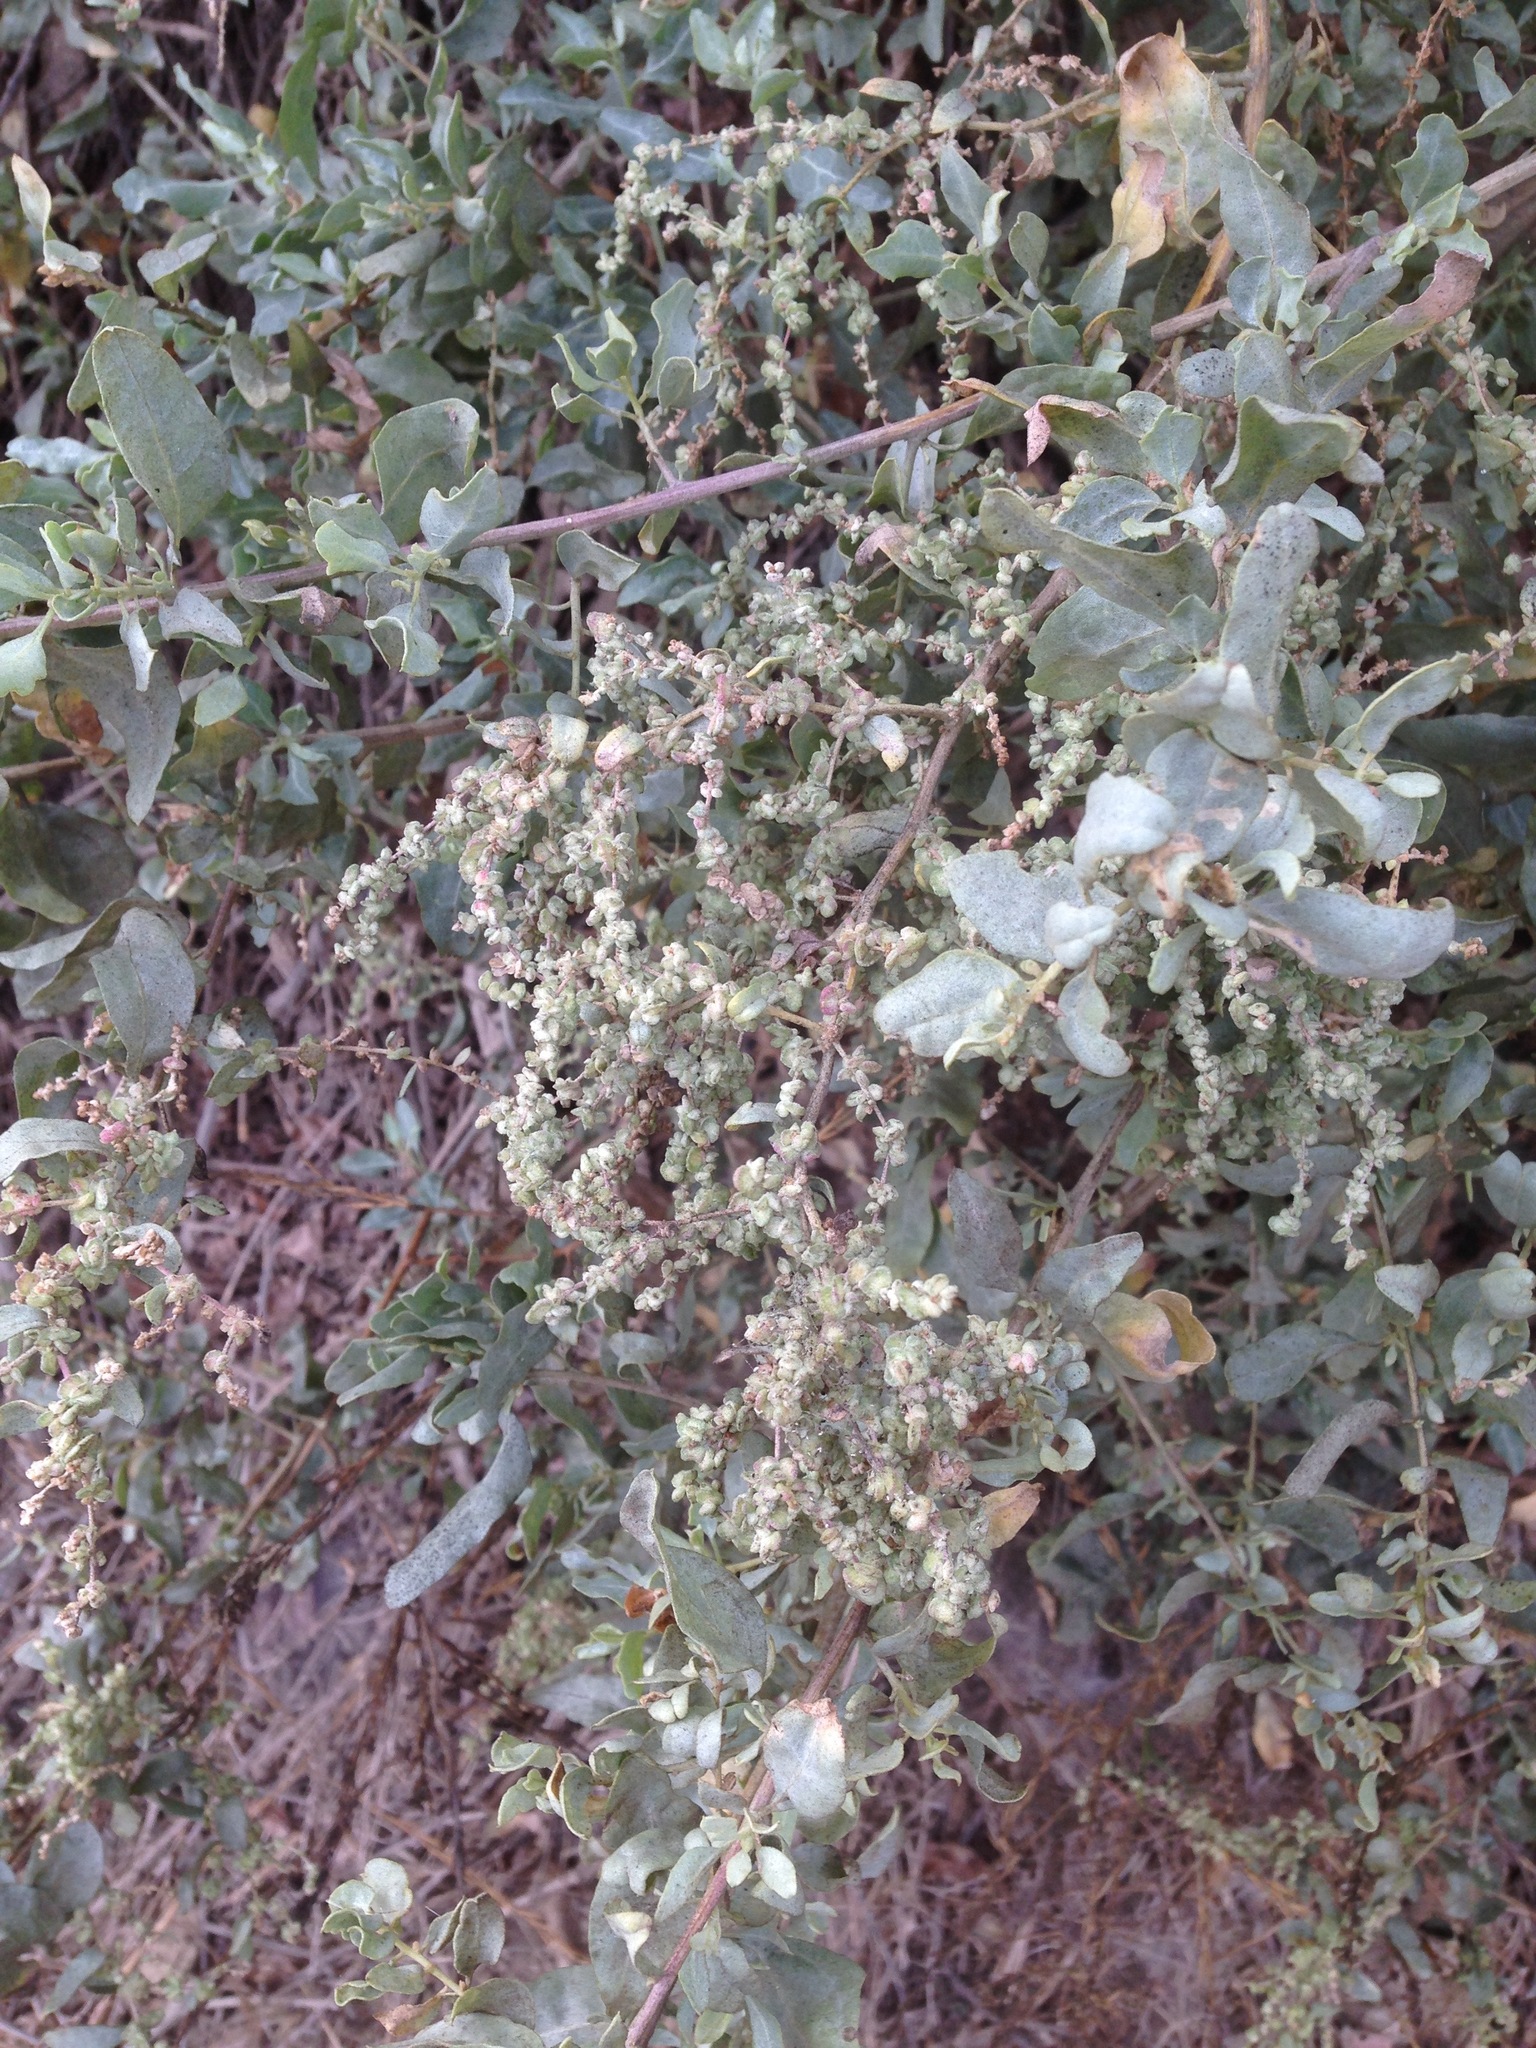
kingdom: Plantae
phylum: Tracheophyta
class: Magnoliopsida
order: Caryophyllales
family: Amaranthaceae
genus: Atriplex
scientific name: Atriplex lentiformis
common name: Big saltbush
